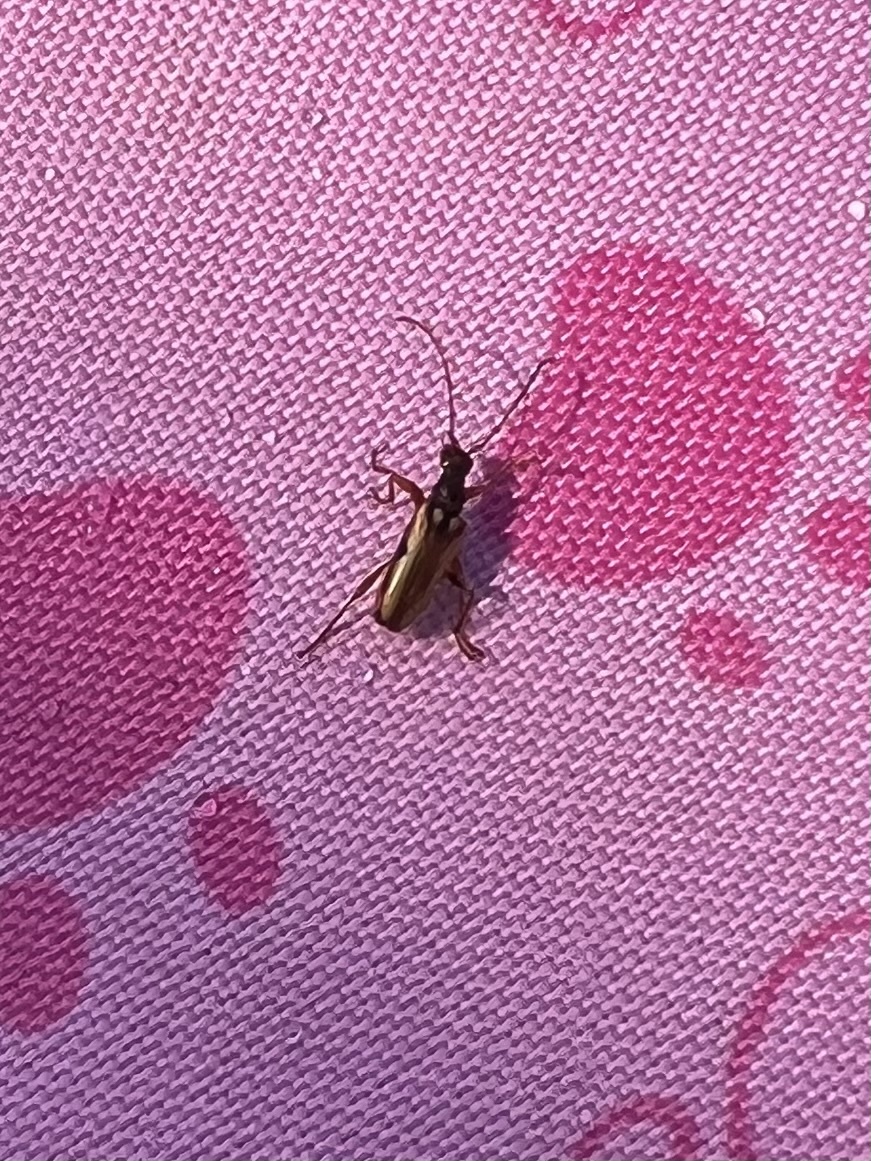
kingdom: Animalia
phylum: Arthropoda
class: Insecta
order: Coleoptera
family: Cerambycidae
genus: Pidonia
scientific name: Pidonia scripta
